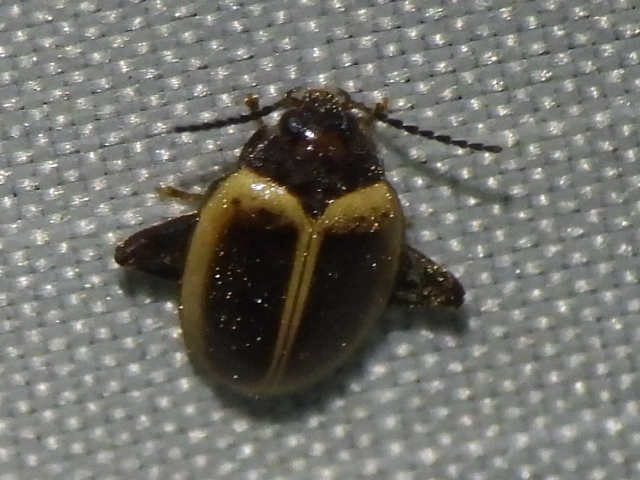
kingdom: Animalia
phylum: Arthropoda
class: Insecta
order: Coleoptera
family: Scirtidae
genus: Ora
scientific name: Ora discoidea
